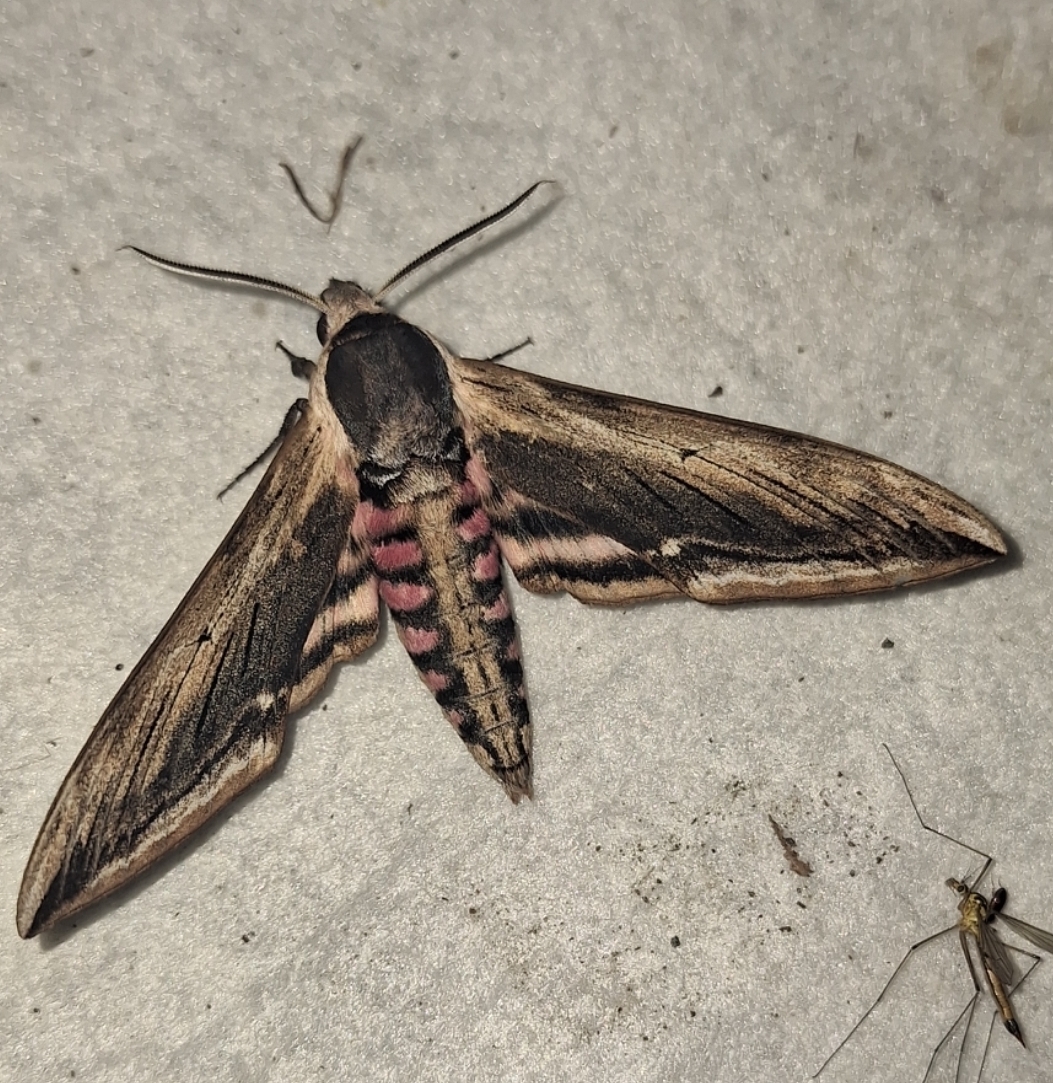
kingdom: Animalia
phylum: Arthropoda
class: Insecta
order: Lepidoptera
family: Sphingidae
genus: Sphinx
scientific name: Sphinx ligustri
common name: Privet hawk-moth
